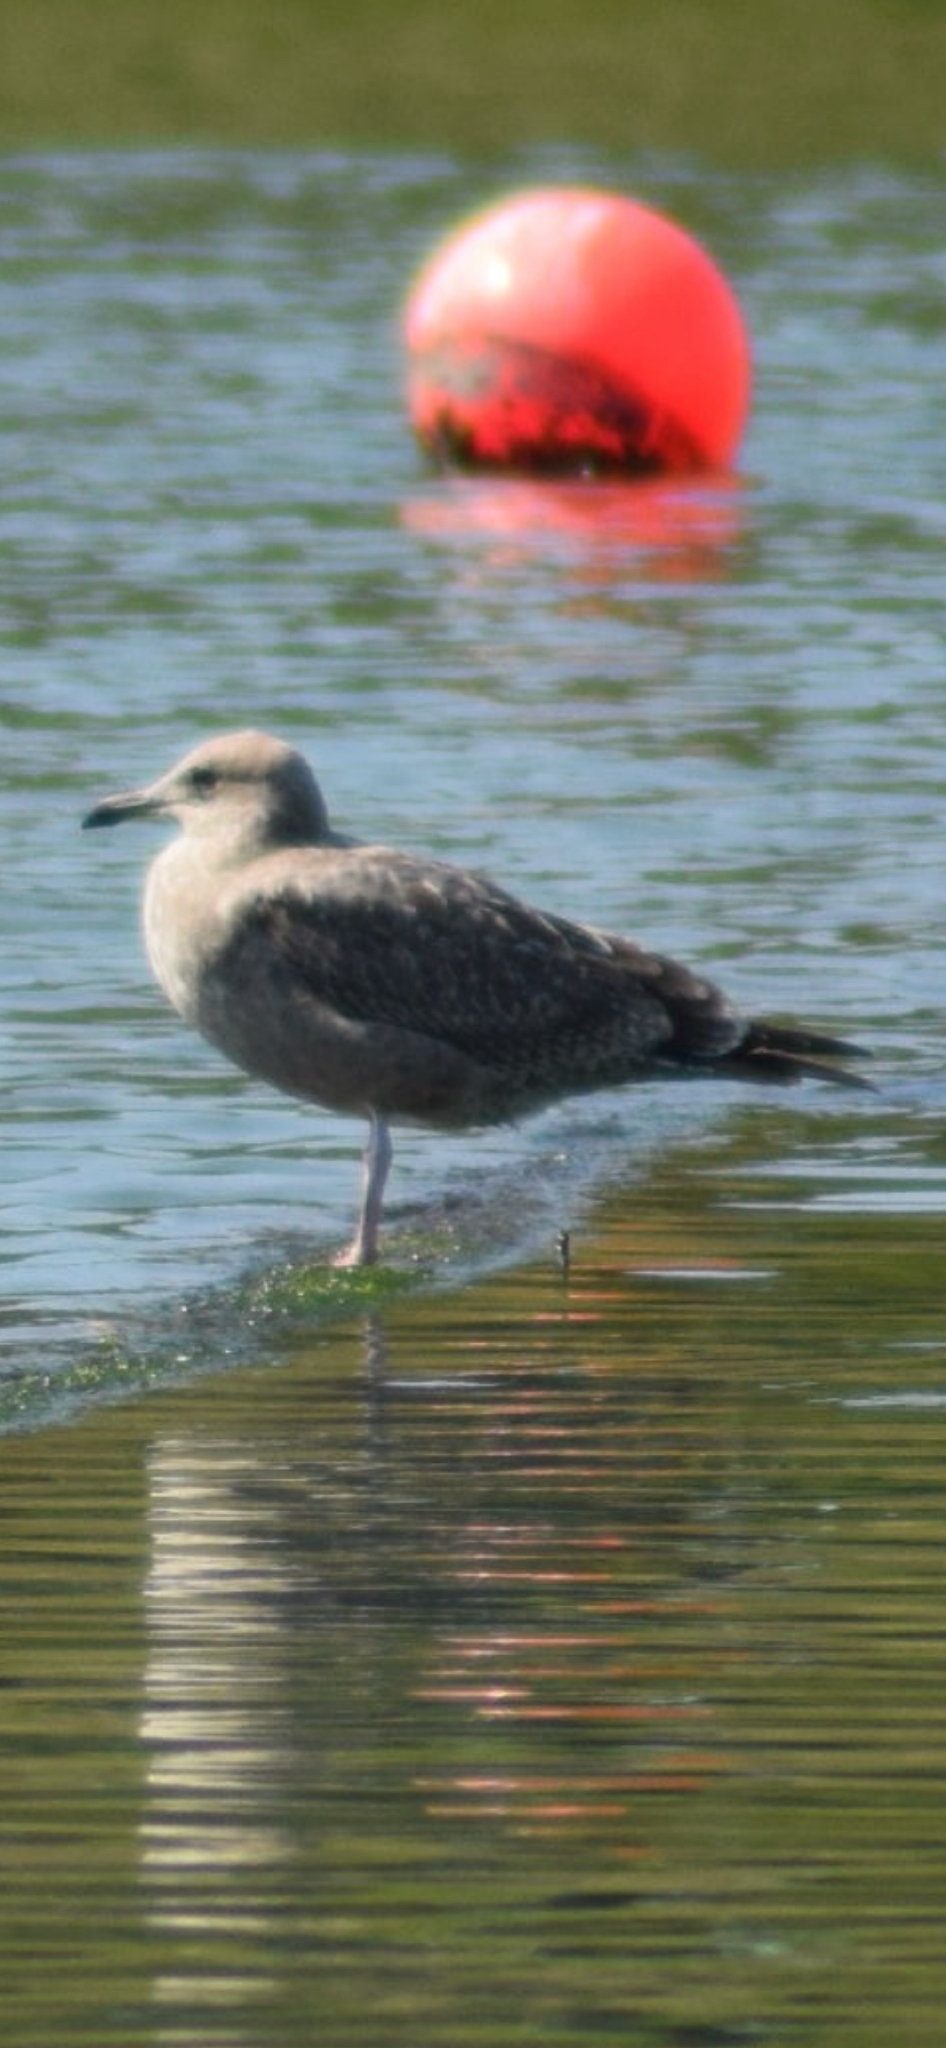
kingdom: Animalia
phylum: Chordata
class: Aves
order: Charadriiformes
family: Laridae
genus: Larus
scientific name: Larus argentatus
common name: Herring gull
